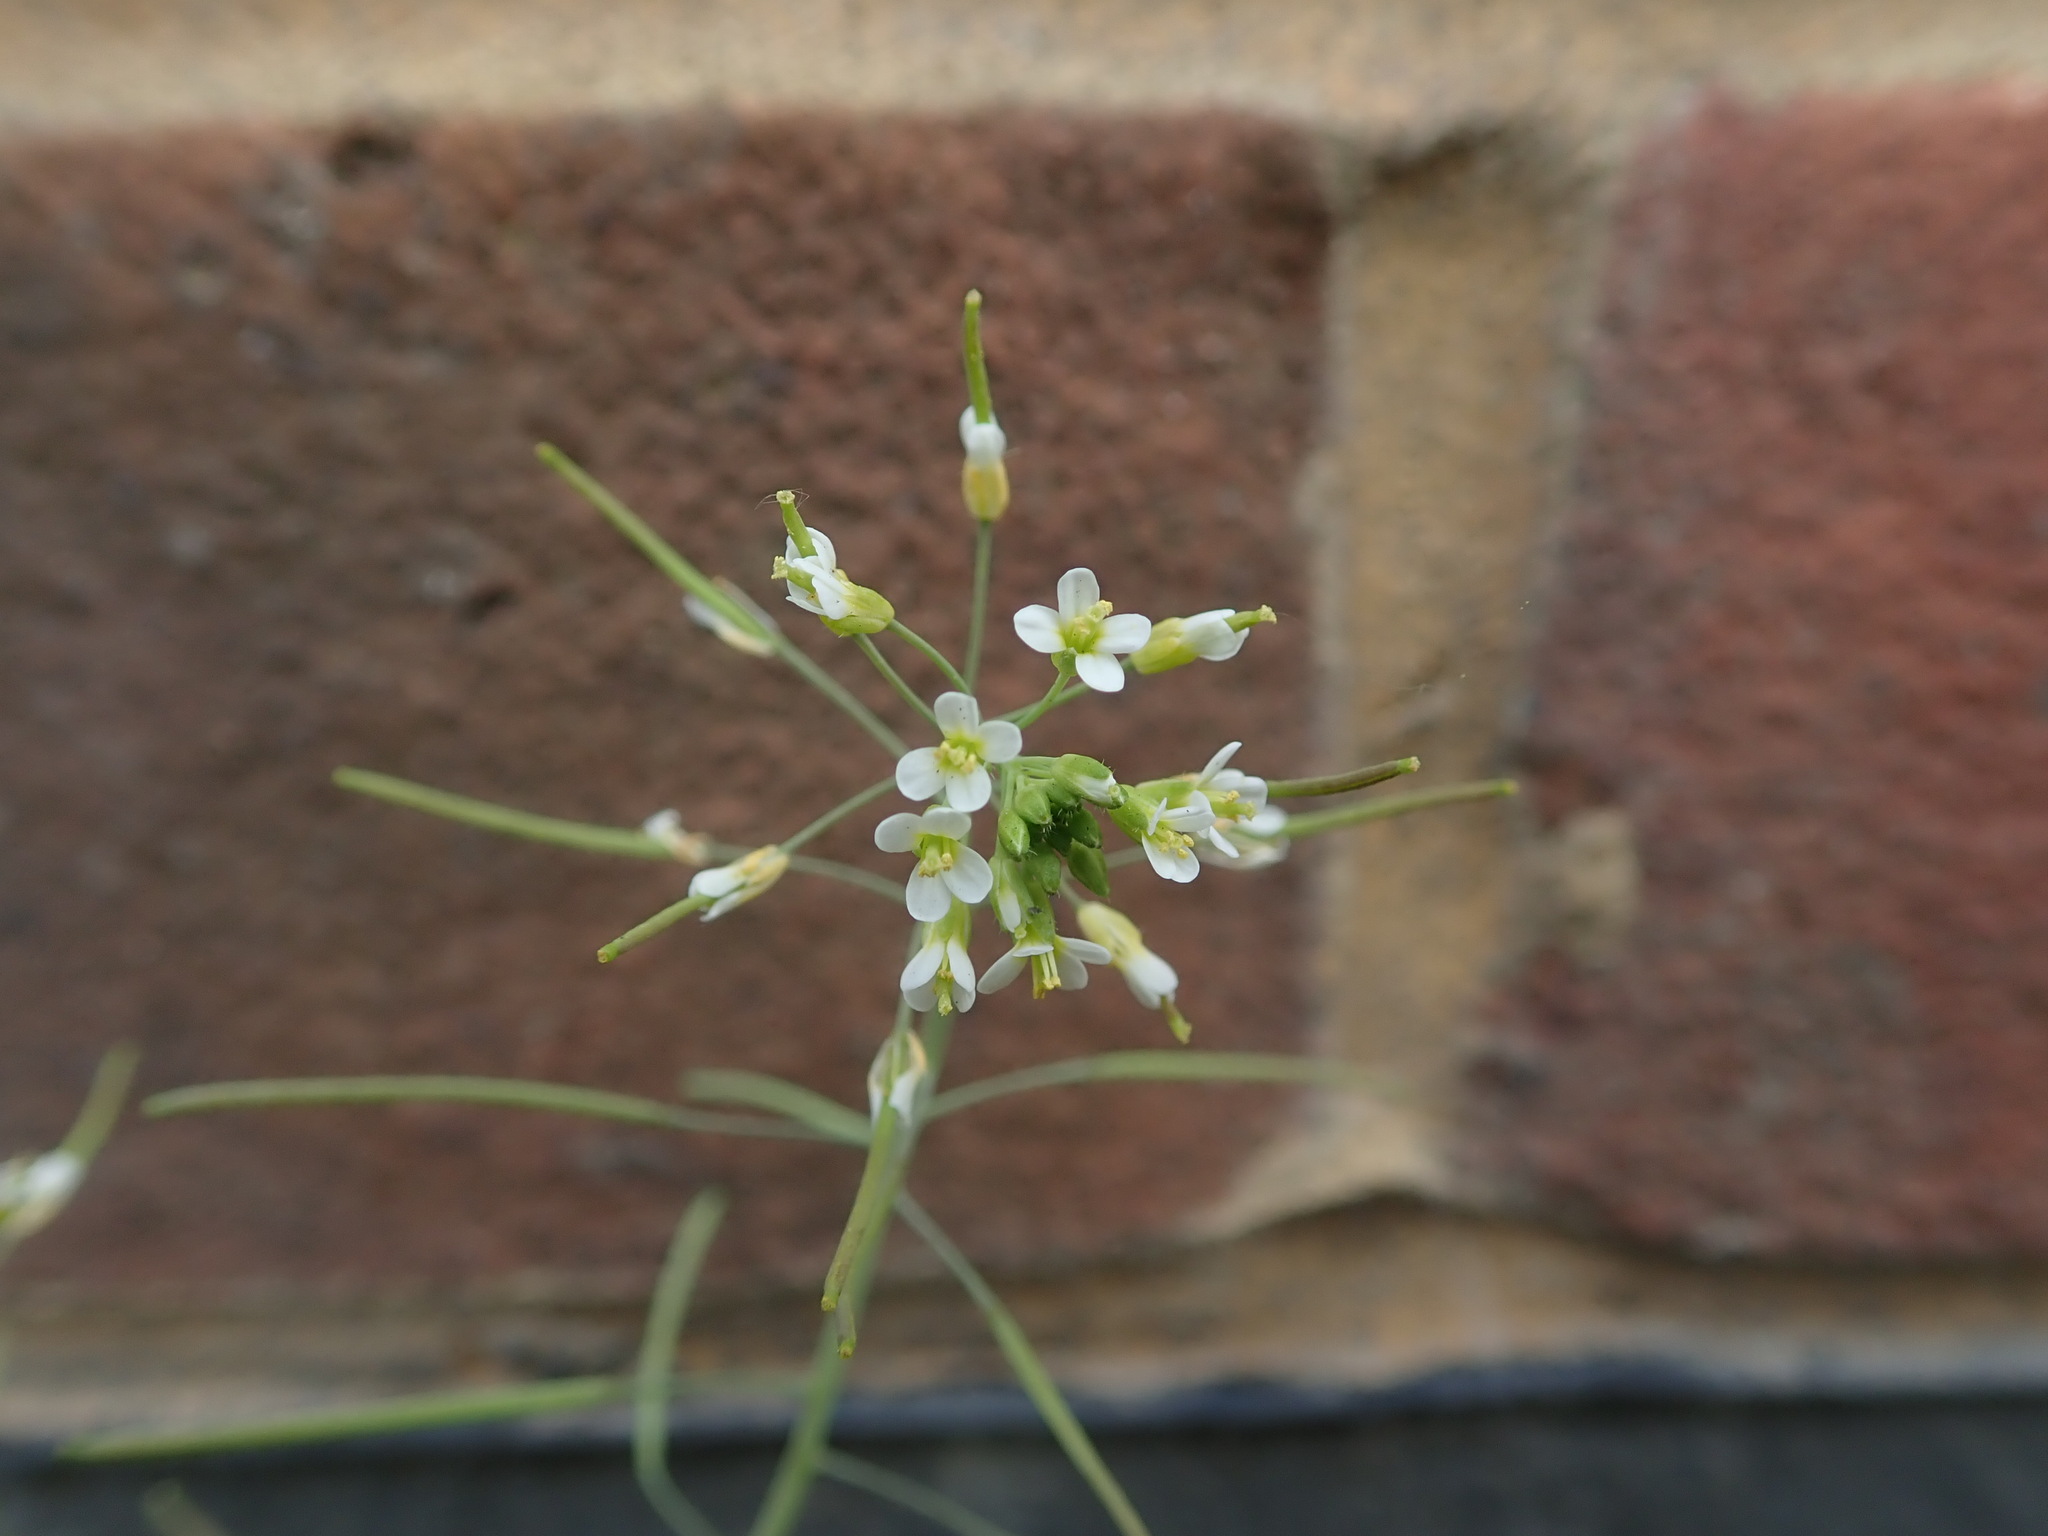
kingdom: Plantae
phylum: Tracheophyta
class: Magnoliopsida
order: Brassicales
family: Brassicaceae
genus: Arabidopsis
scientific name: Arabidopsis thaliana
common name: Thale cress
